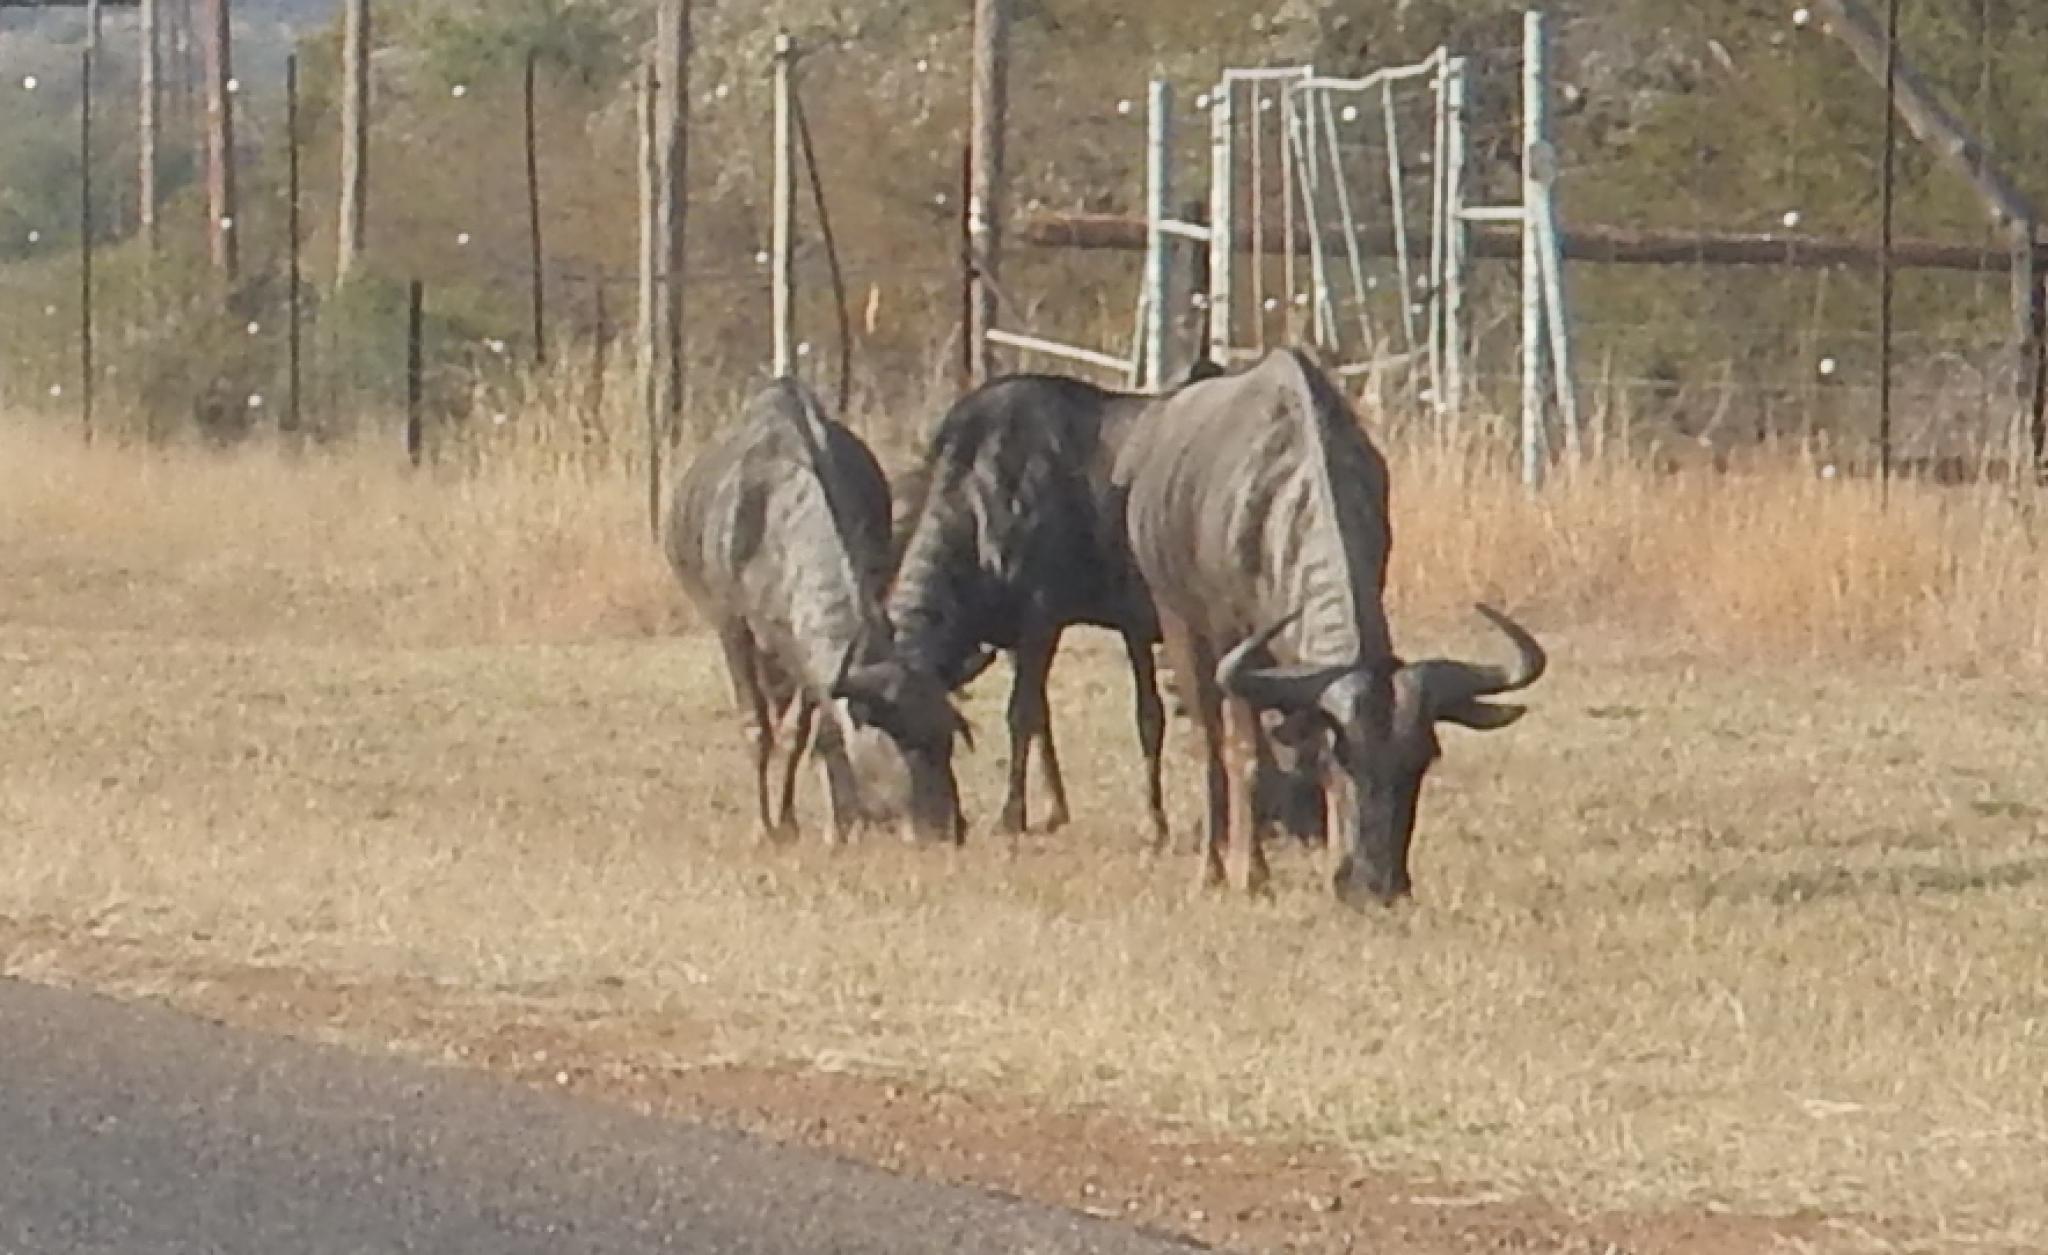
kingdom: Animalia
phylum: Chordata
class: Mammalia
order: Artiodactyla
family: Bovidae
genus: Connochaetes
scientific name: Connochaetes taurinus
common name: Blue wildebeest
